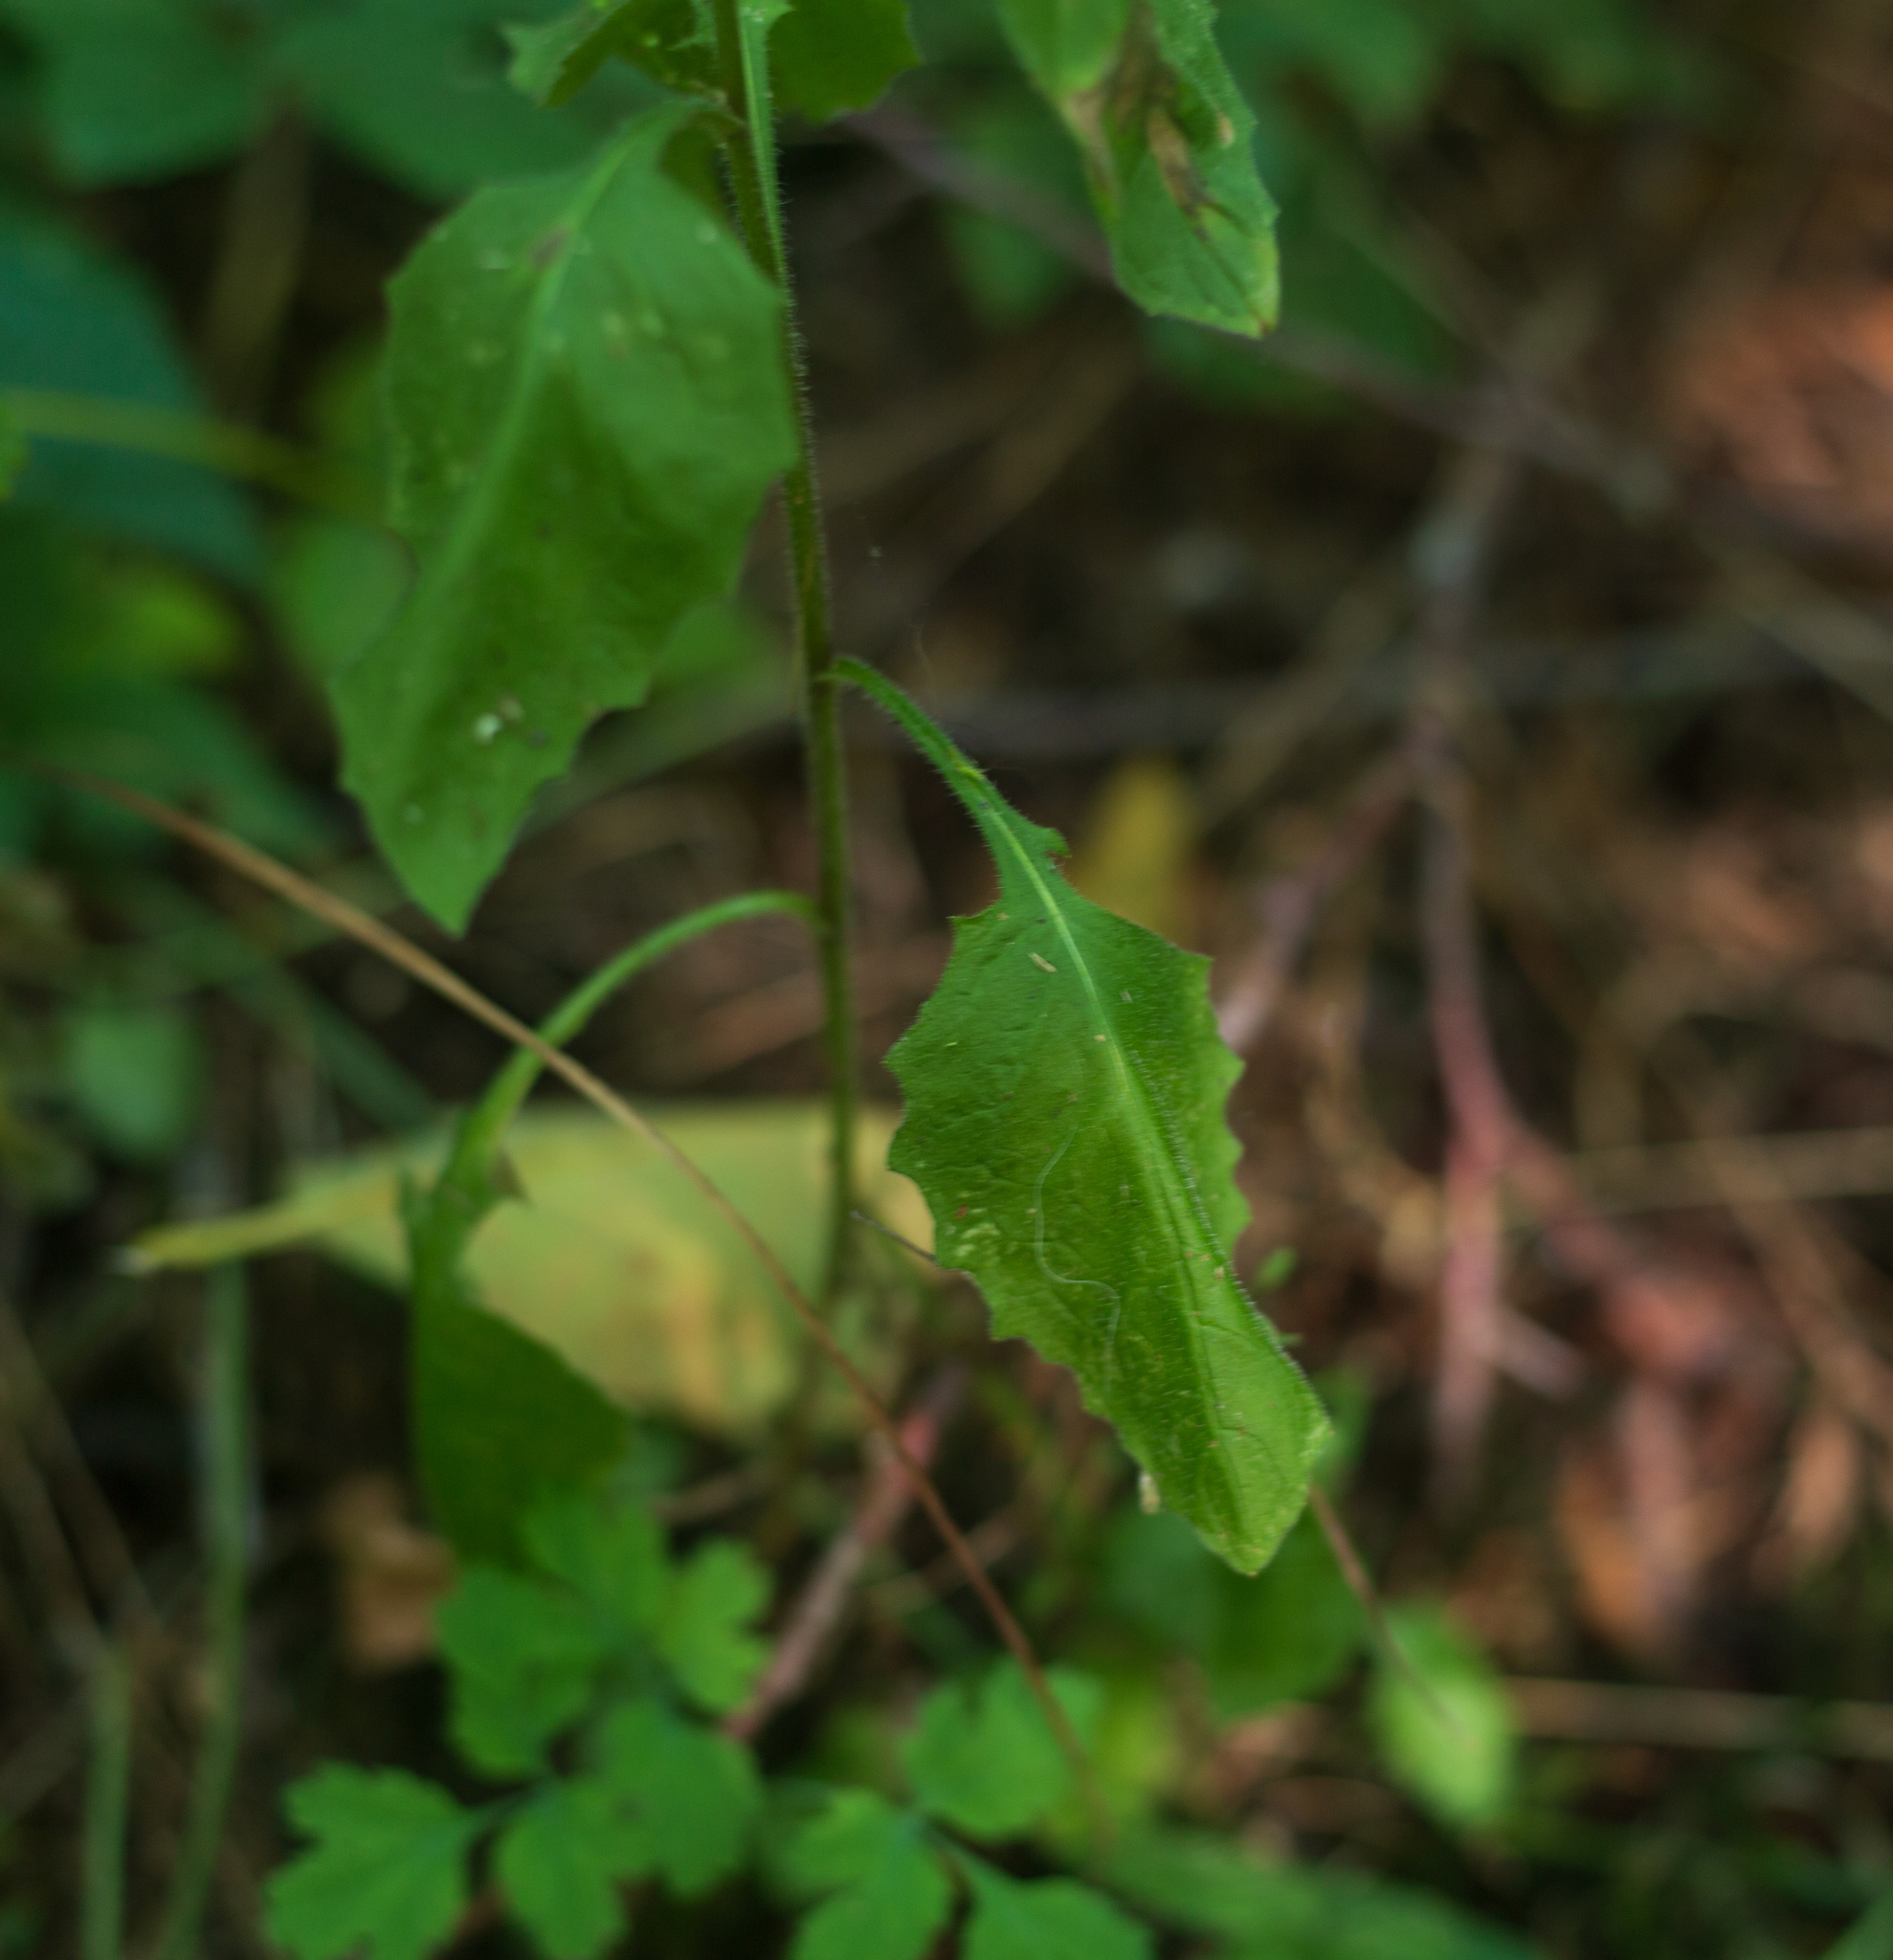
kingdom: Plantae
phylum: Tracheophyta
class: Magnoliopsida
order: Asterales
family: Asteraceae
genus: Lapsana
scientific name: Lapsana communis
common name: Nipplewort
